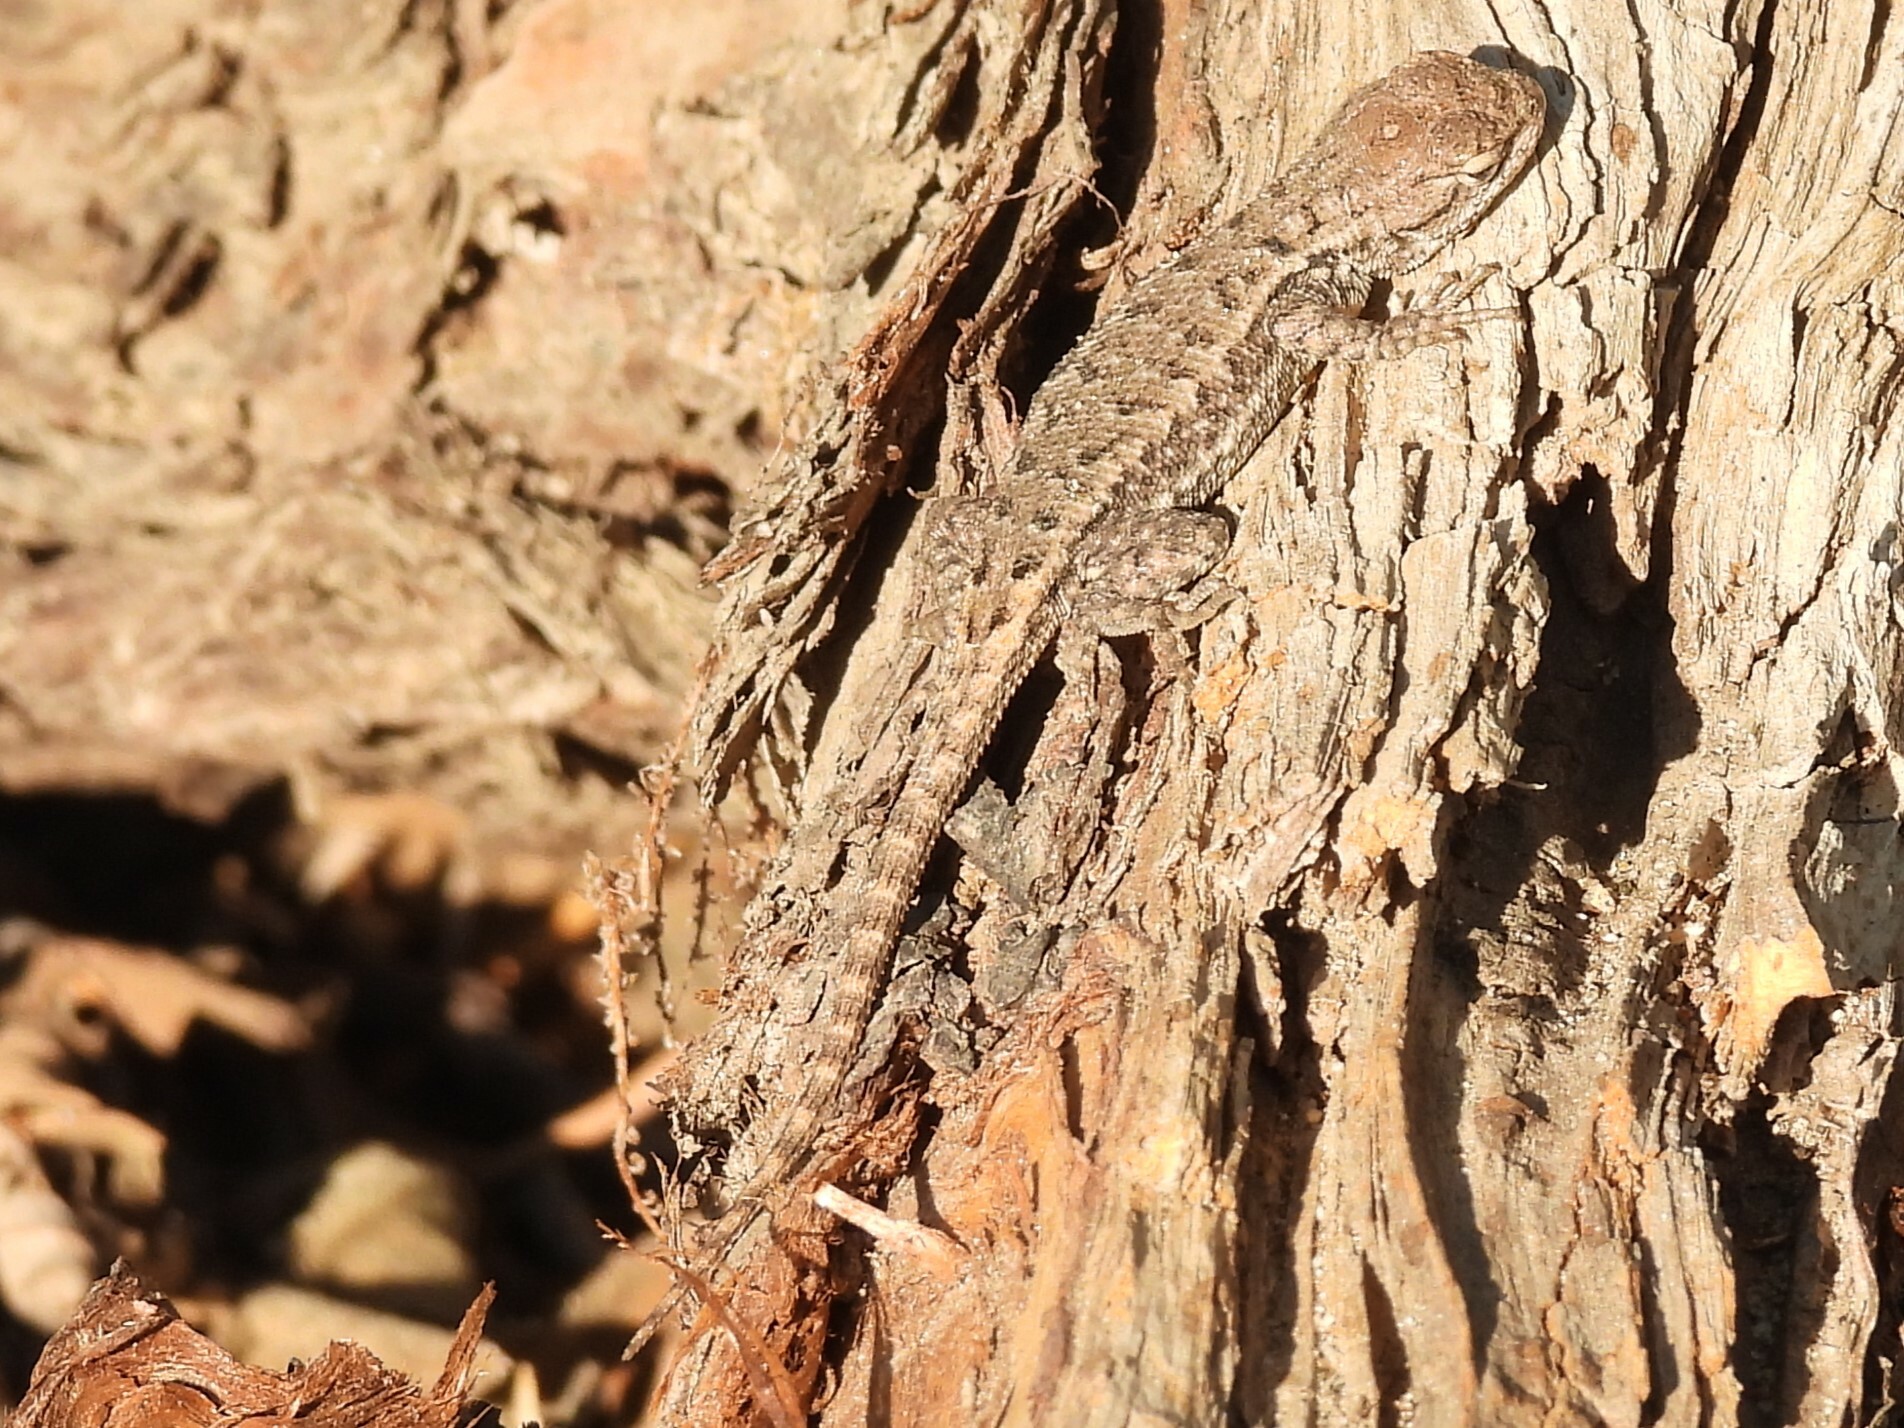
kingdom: Animalia
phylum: Chordata
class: Squamata
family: Phrynosomatidae
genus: Sceloporus
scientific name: Sceloporus occidentalis
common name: Western fence lizard
